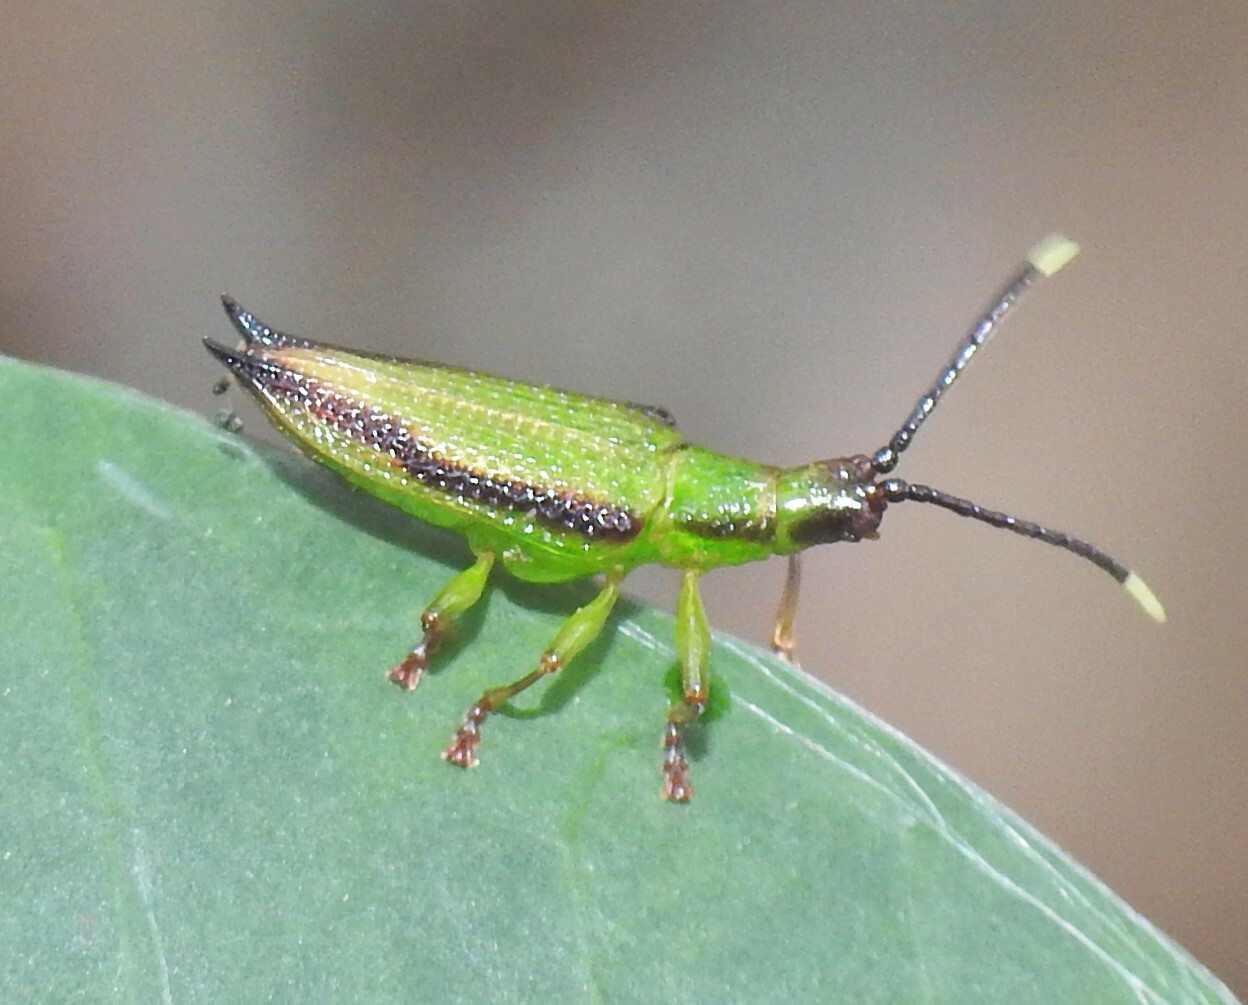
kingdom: Animalia
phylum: Arthropoda
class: Insecta
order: Coleoptera
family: Chrysomelidae
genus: Aproida
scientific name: Aproida balyi
